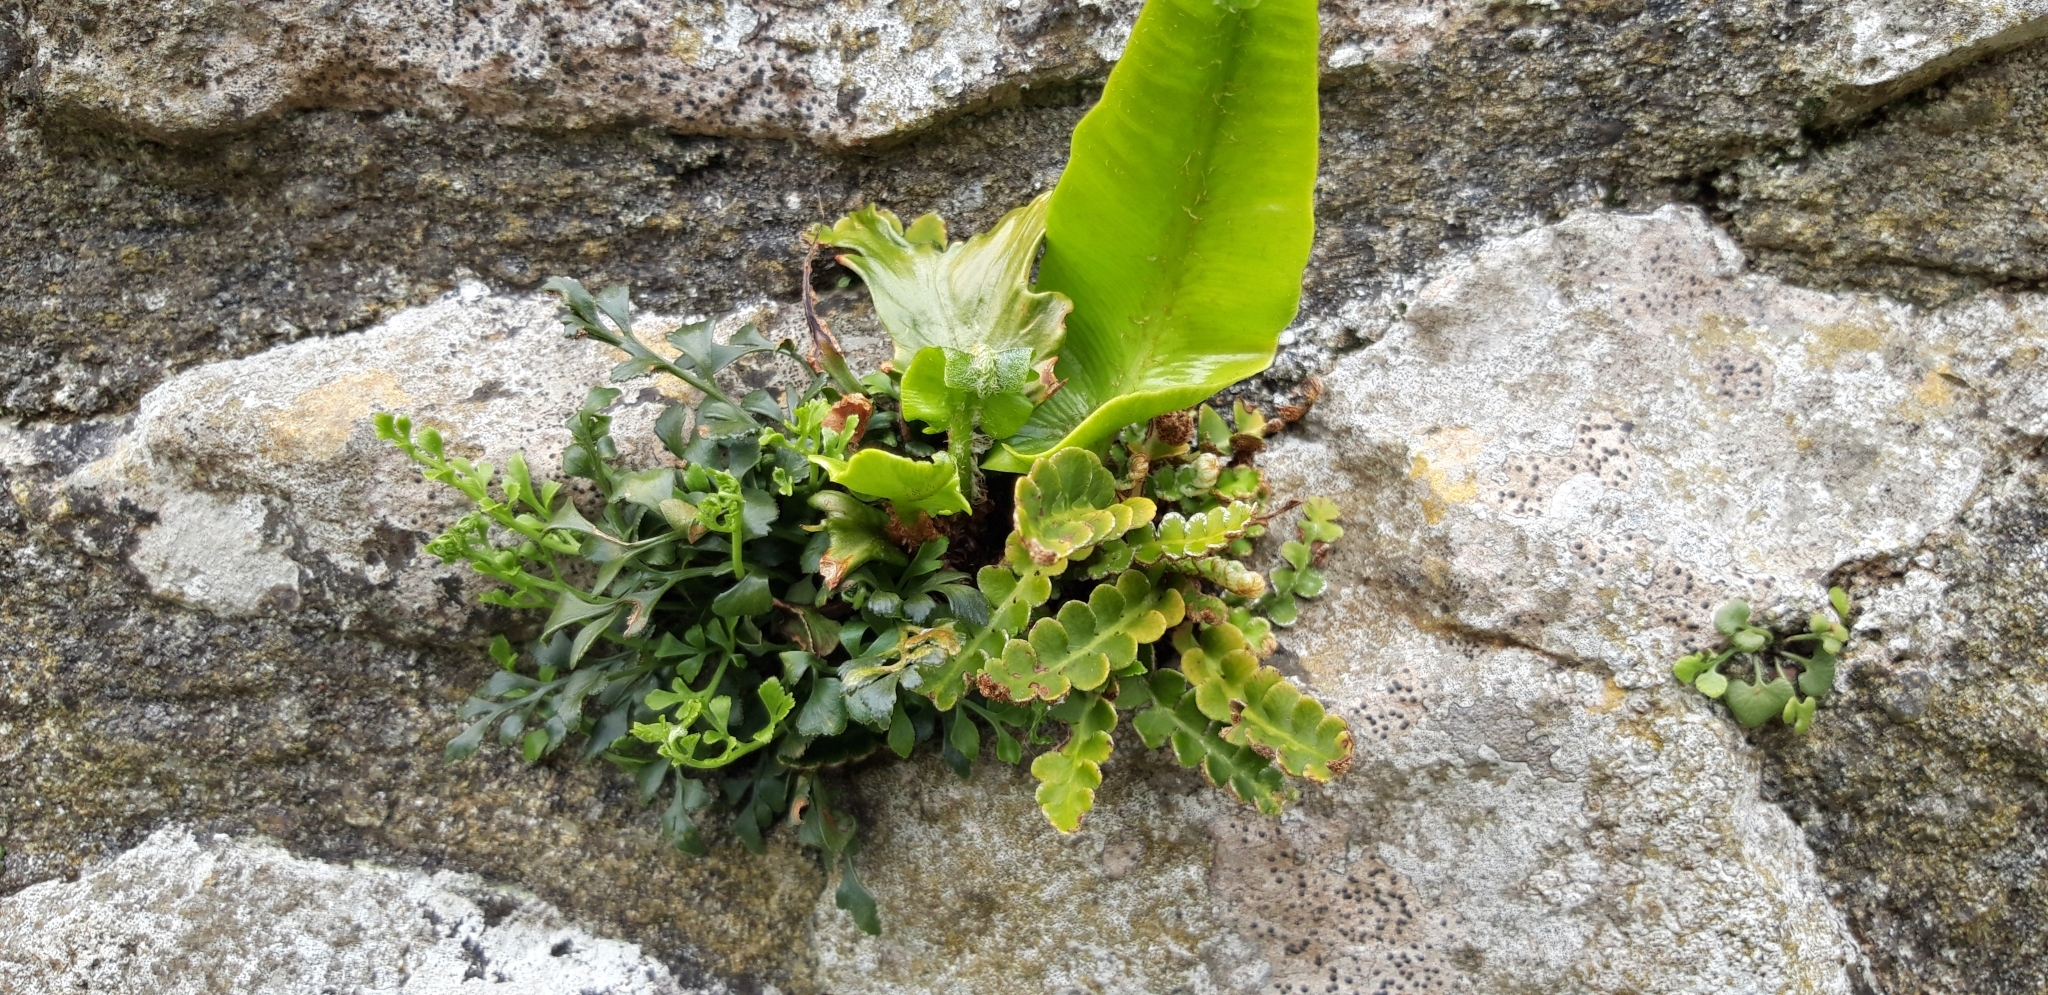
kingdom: Plantae
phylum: Tracheophyta
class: Polypodiopsida
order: Polypodiales
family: Aspleniaceae
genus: Asplenium
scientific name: Asplenium scolopendrium
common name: Hart's-tongue fern
